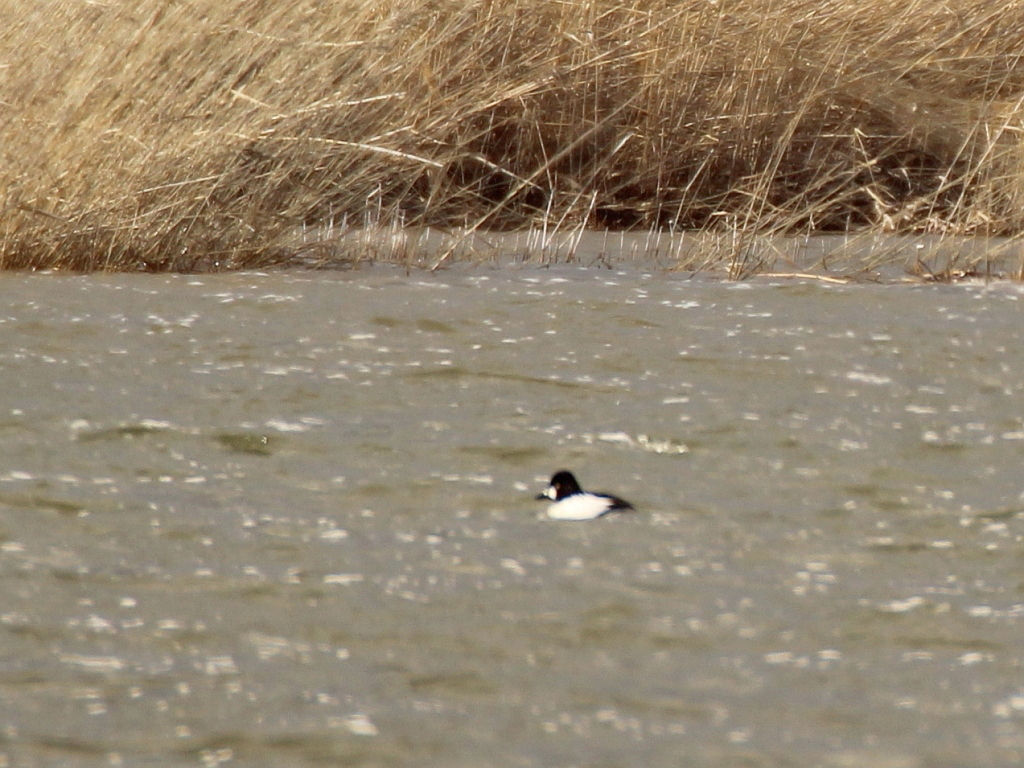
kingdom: Animalia
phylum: Chordata
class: Aves
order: Anseriformes
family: Anatidae
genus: Bucephala
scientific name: Bucephala clangula
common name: Common goldeneye
